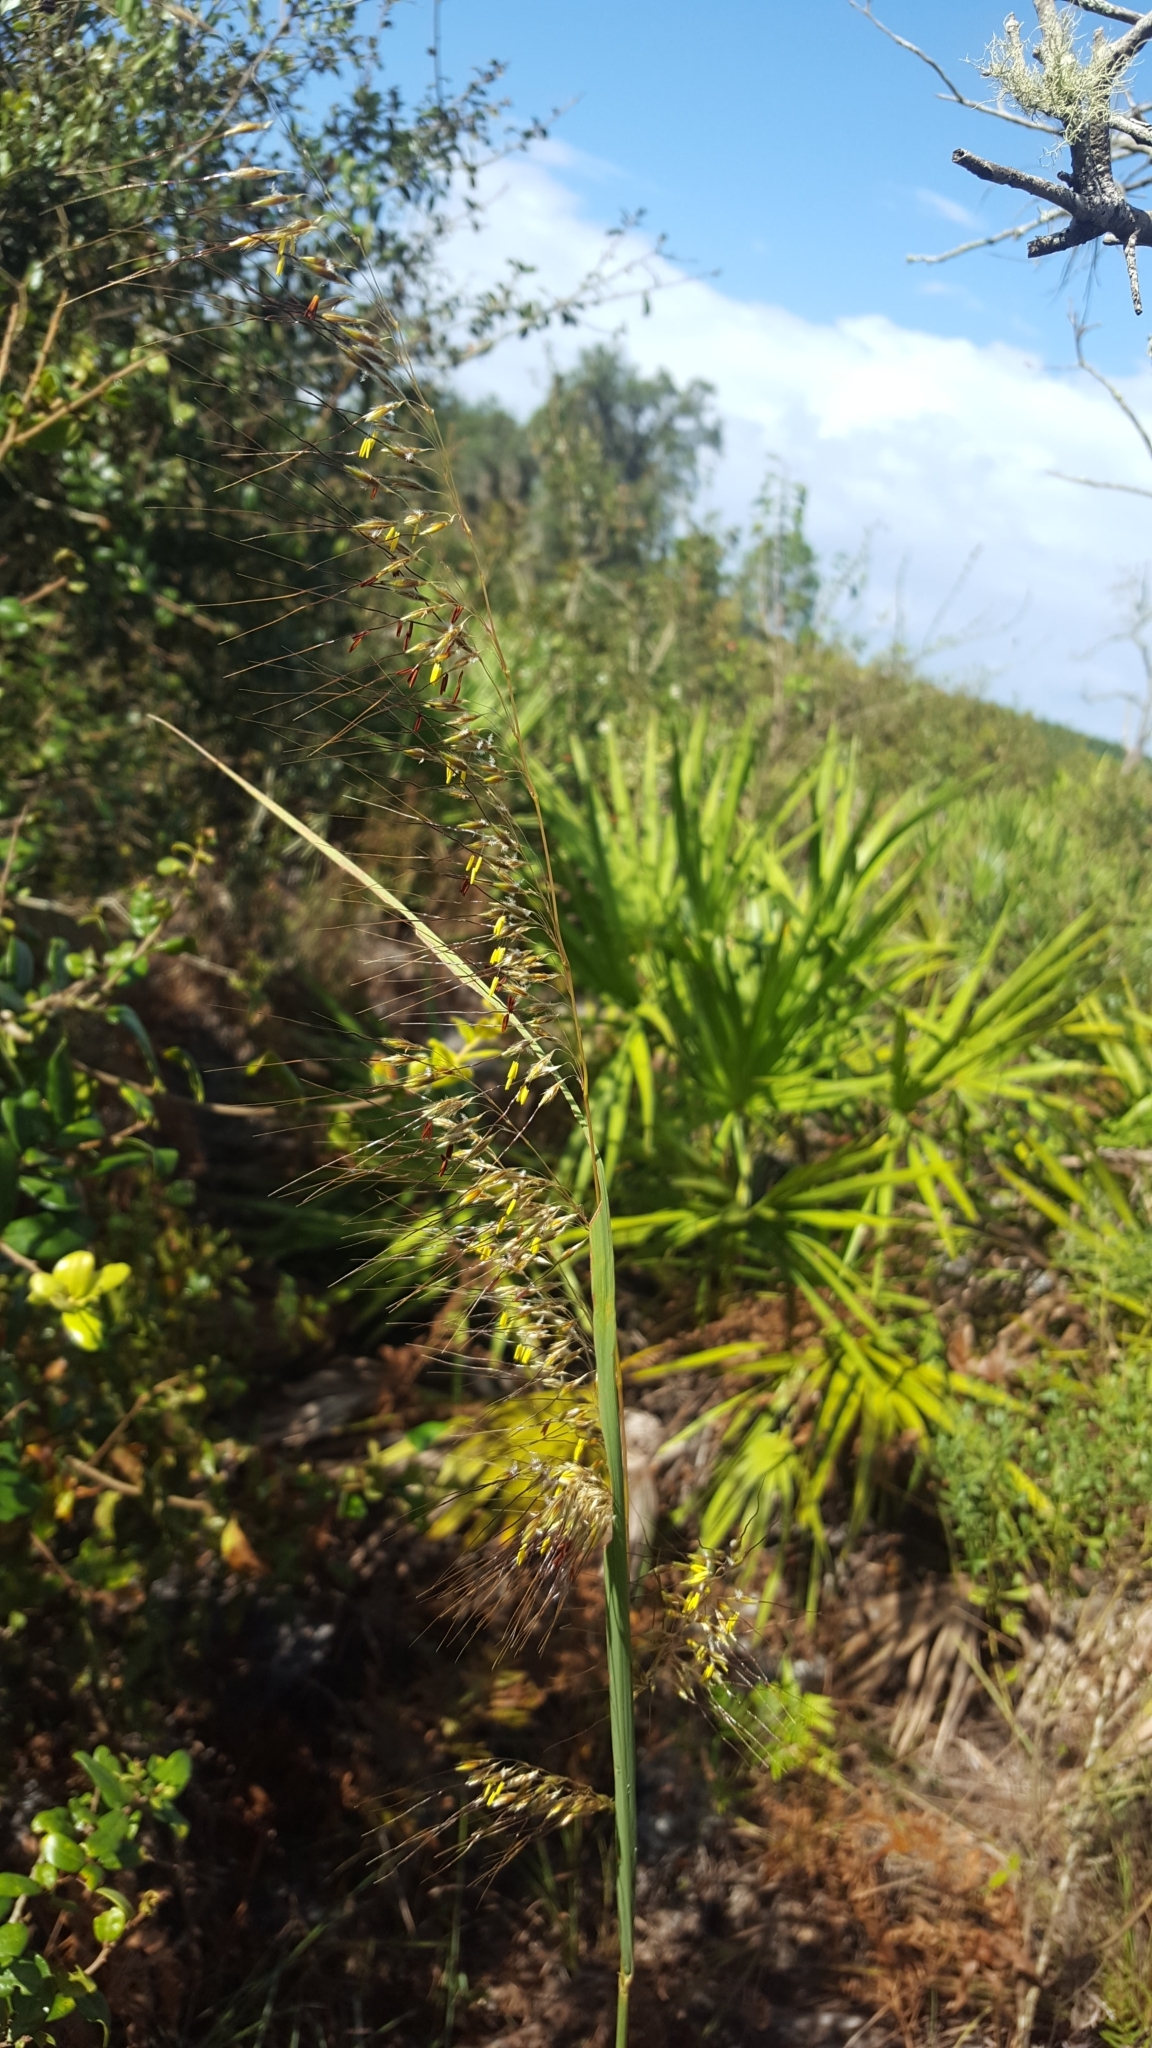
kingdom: Plantae
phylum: Tracheophyta
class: Liliopsida
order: Poales
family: Poaceae
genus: Sorghastrum
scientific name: Sorghastrum secundum
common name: Lopsided indian grass
